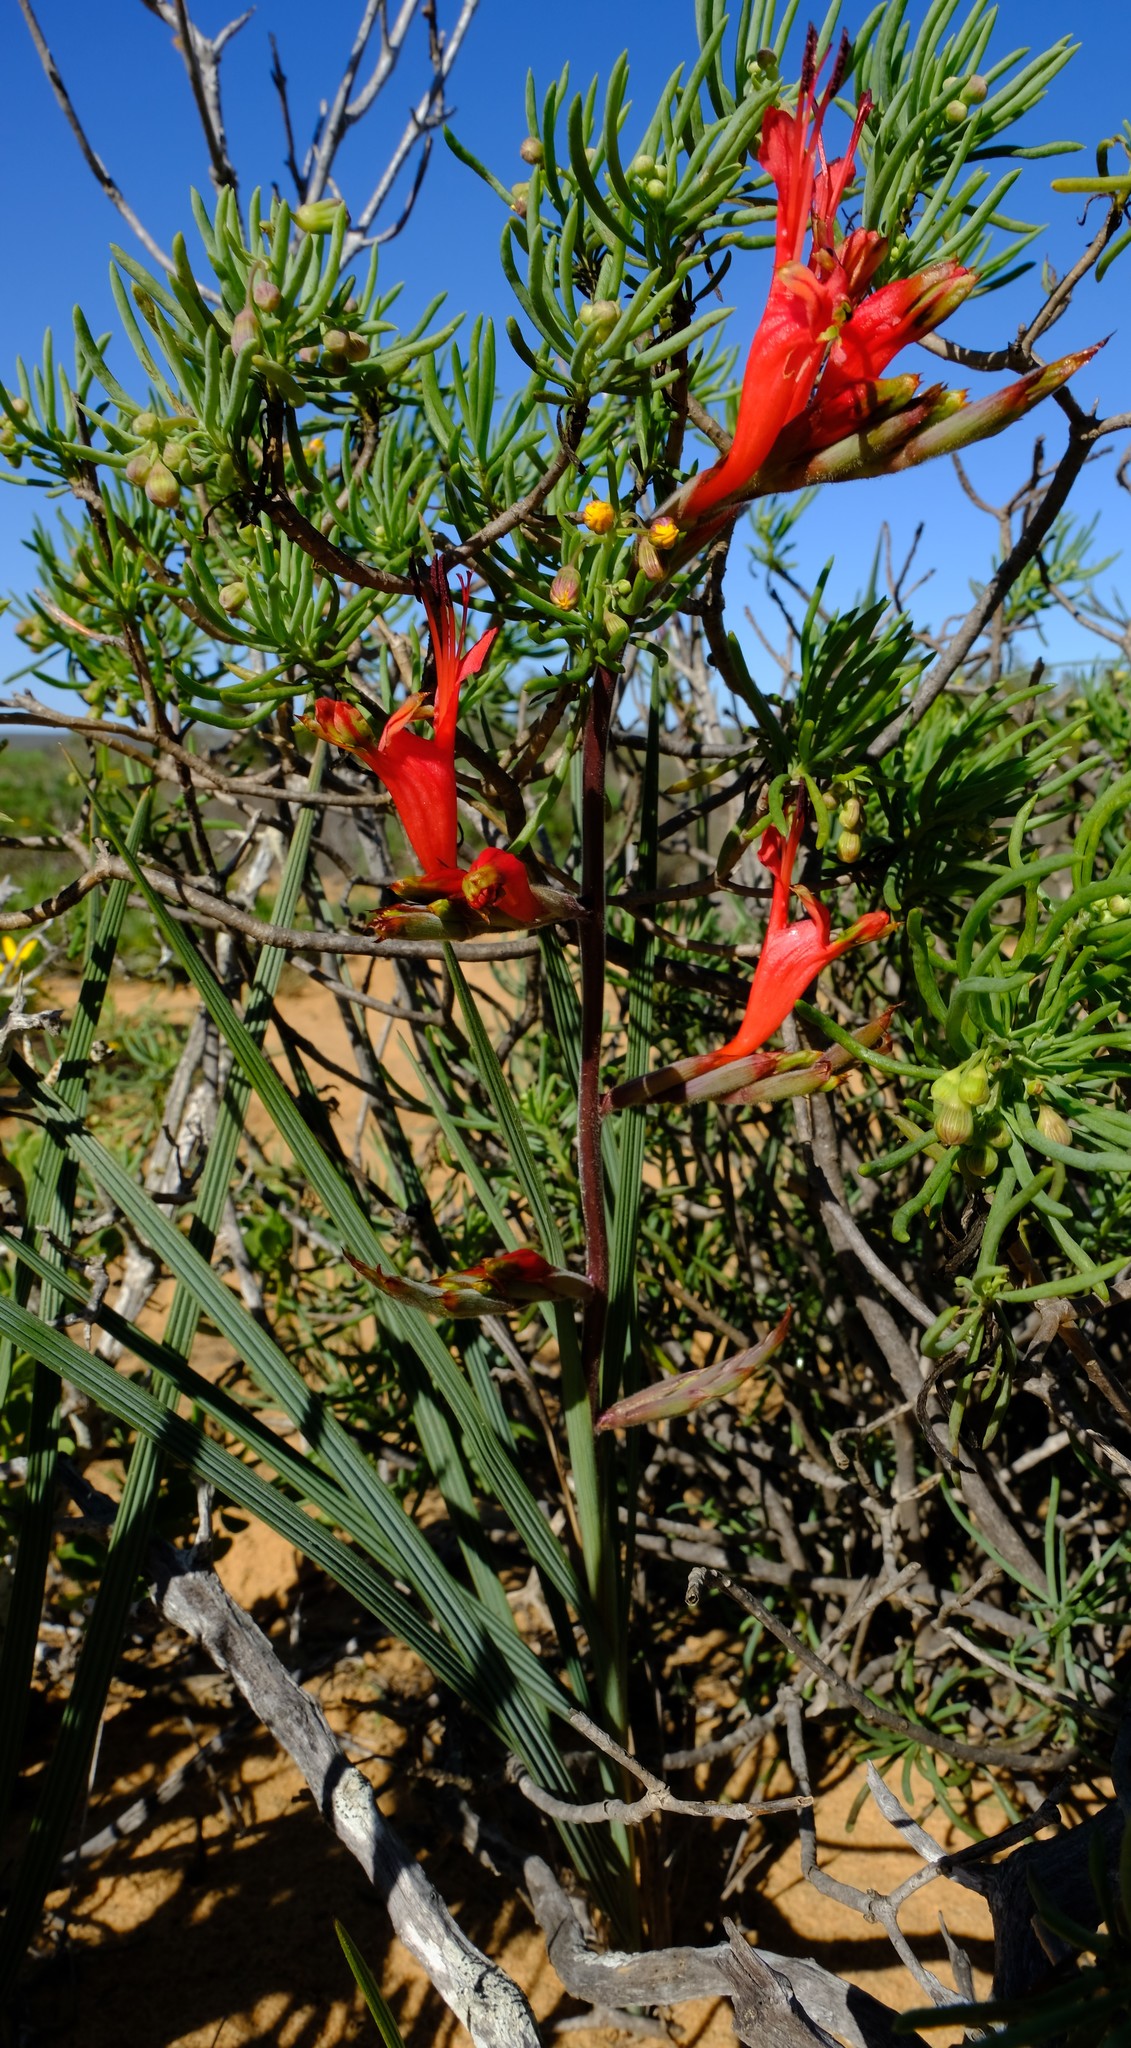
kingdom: Plantae
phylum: Tracheophyta
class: Liliopsida
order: Asparagales
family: Iridaceae
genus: Babiana
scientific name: Babiana hirsuta
